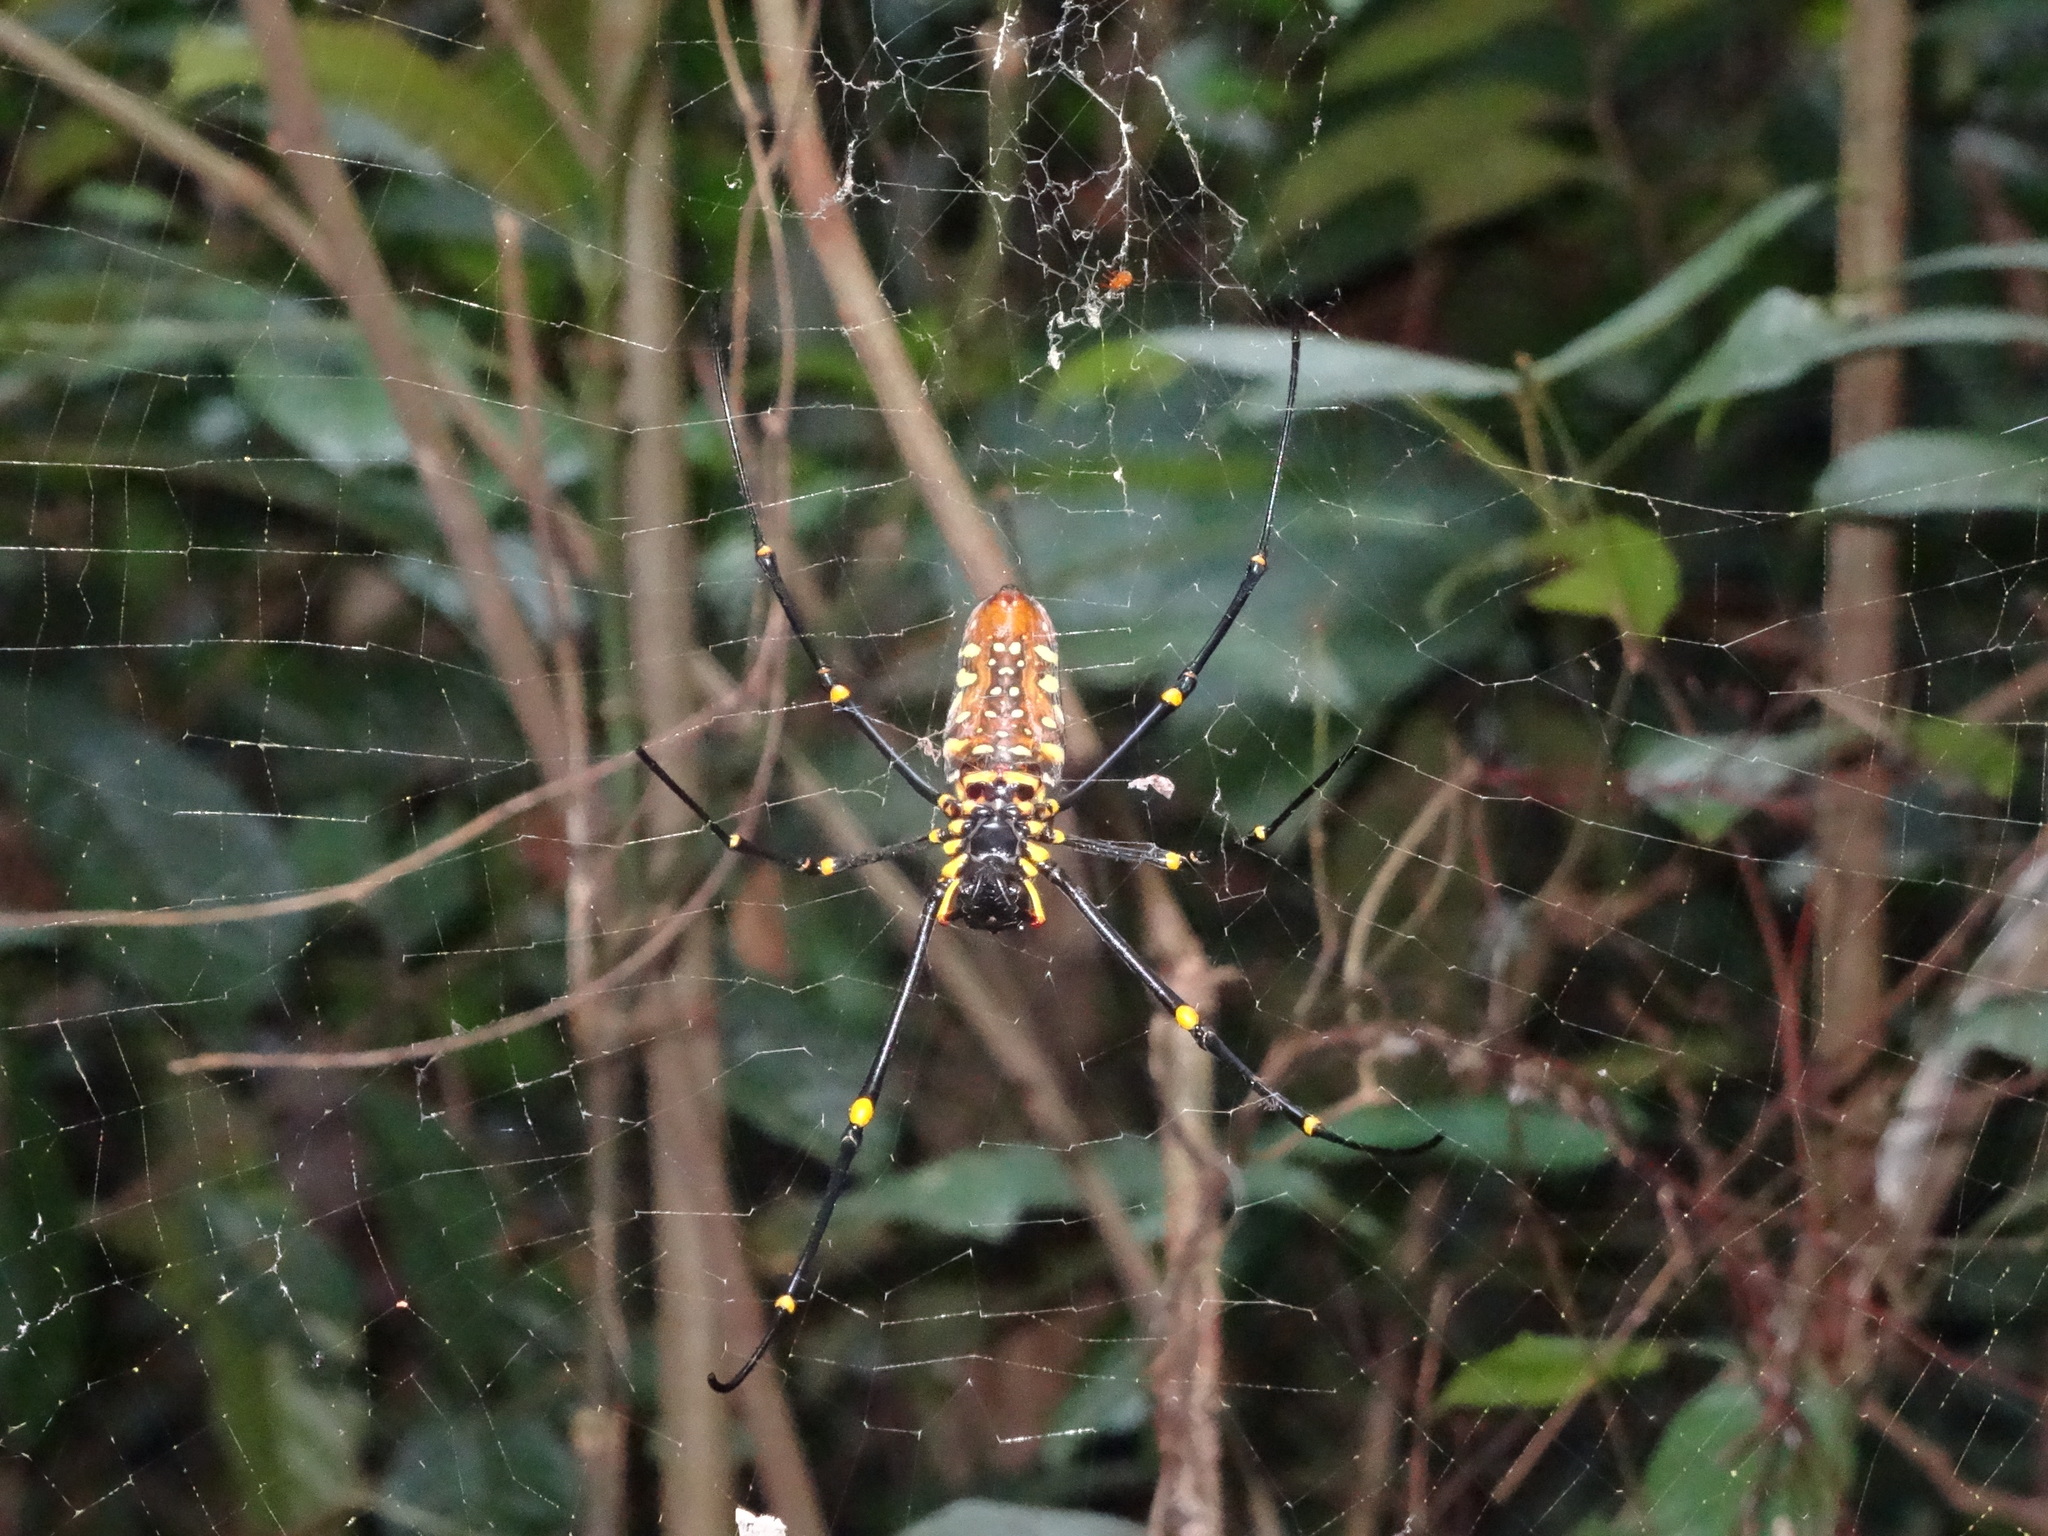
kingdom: Animalia
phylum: Arthropoda
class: Arachnida
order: Araneae
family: Araneidae
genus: Nephila
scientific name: Nephila pilipes
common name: Giant golden orb weaver
